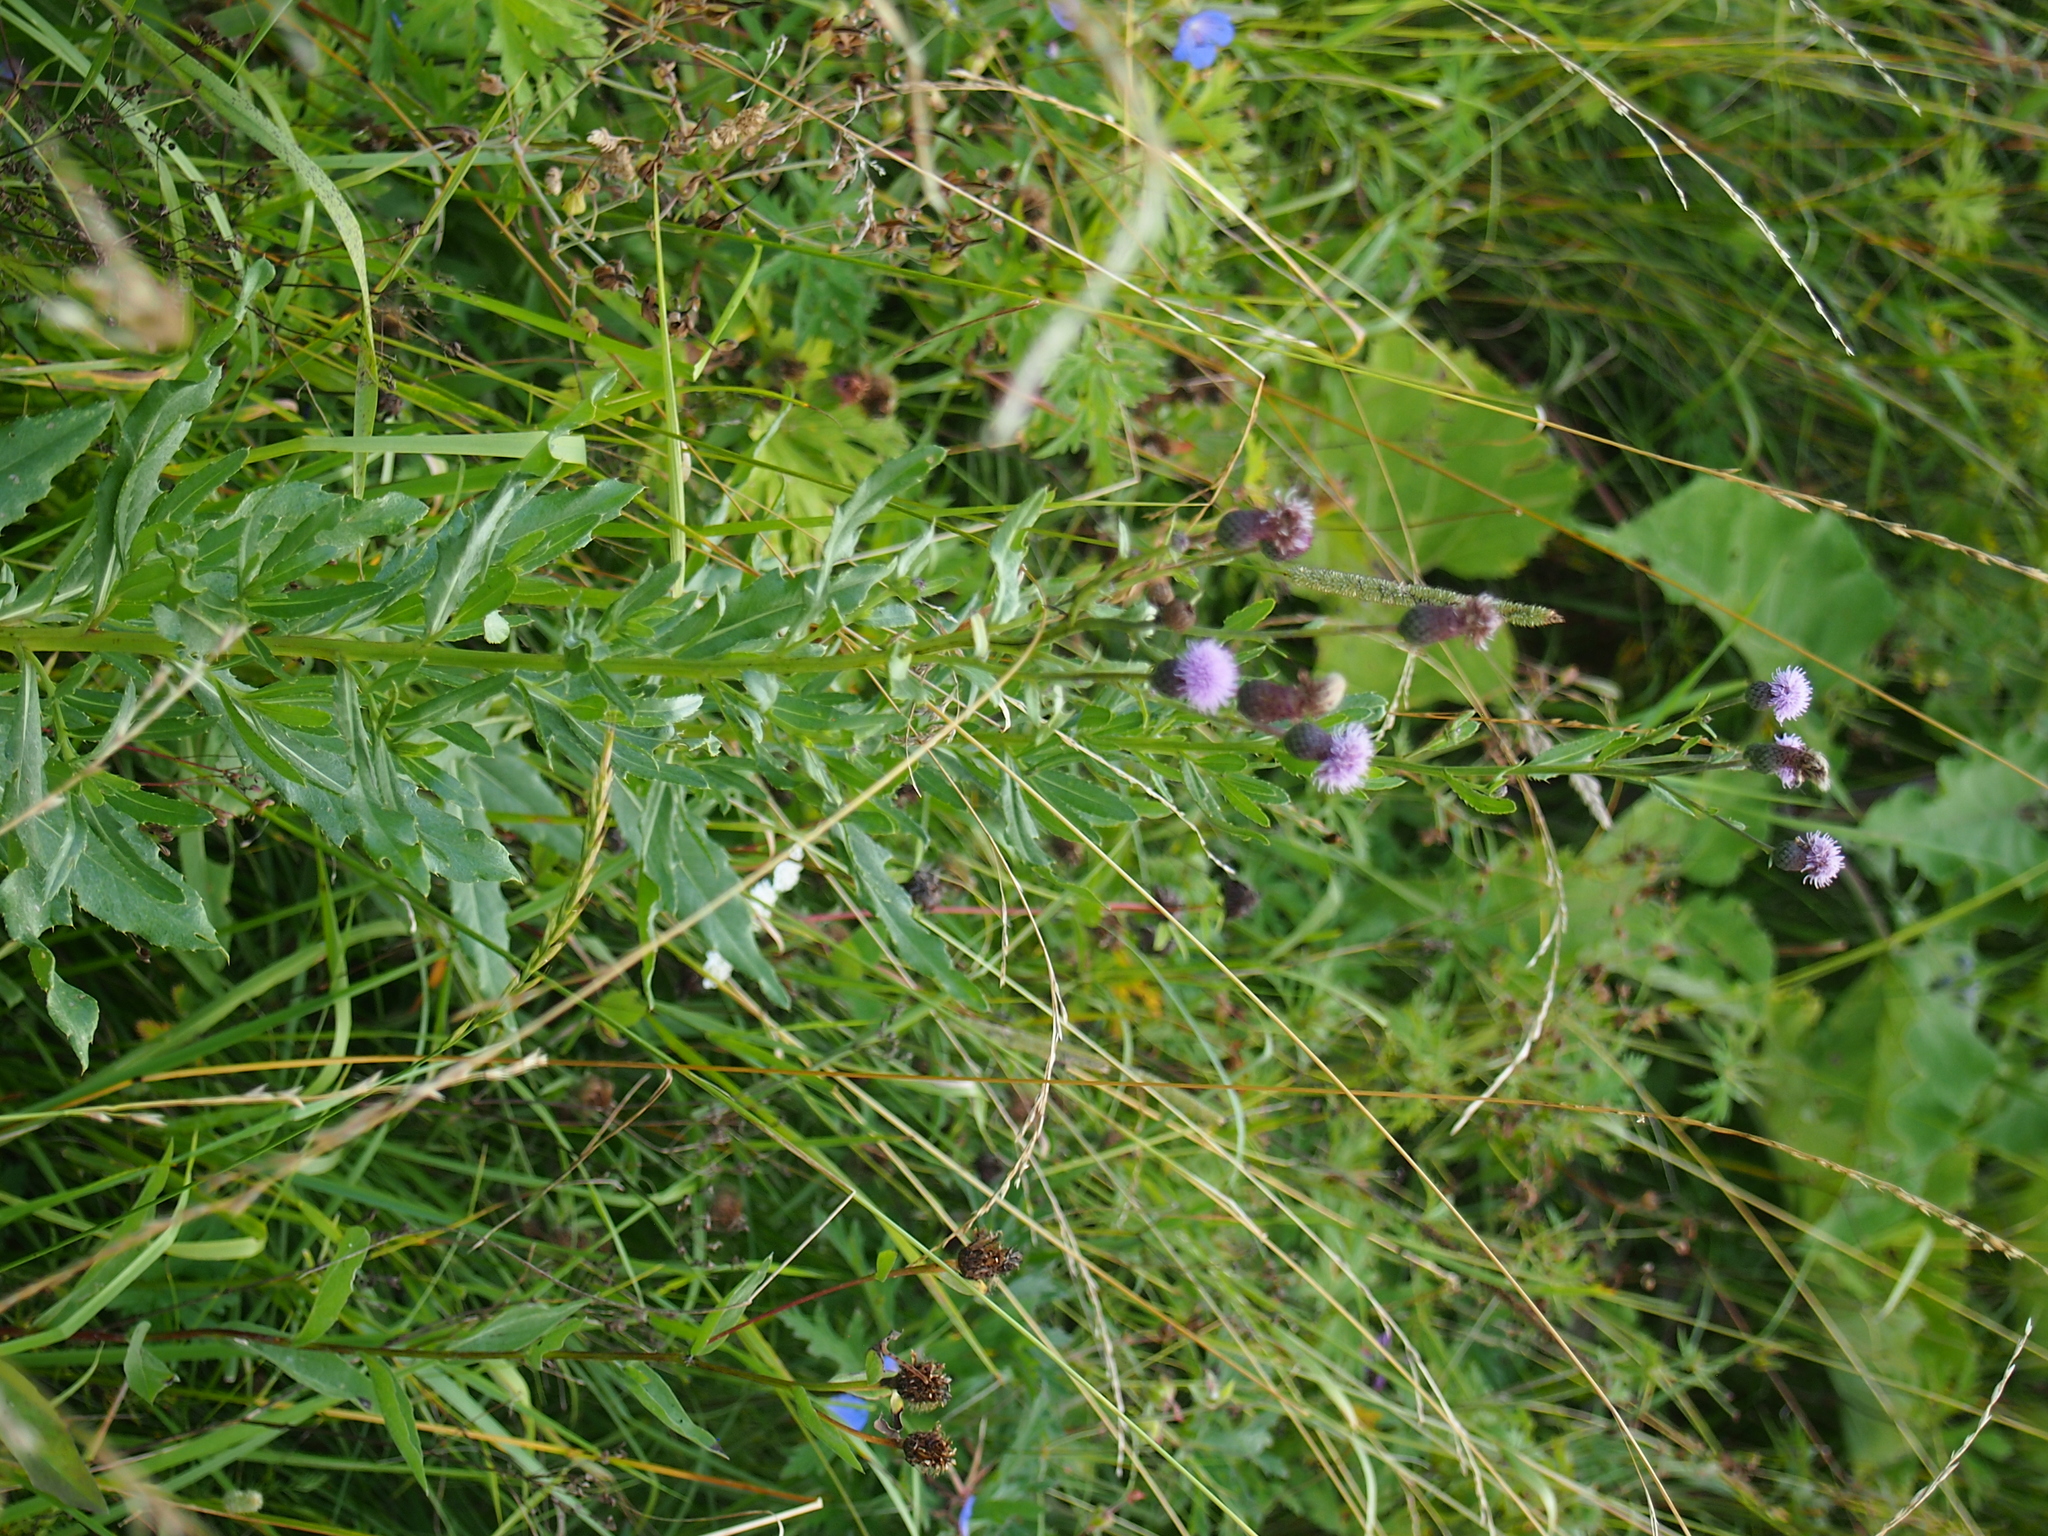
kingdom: Plantae
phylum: Tracheophyta
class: Magnoliopsida
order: Asterales
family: Asteraceae
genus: Cirsium
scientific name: Cirsium arvense
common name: Creeping thistle
